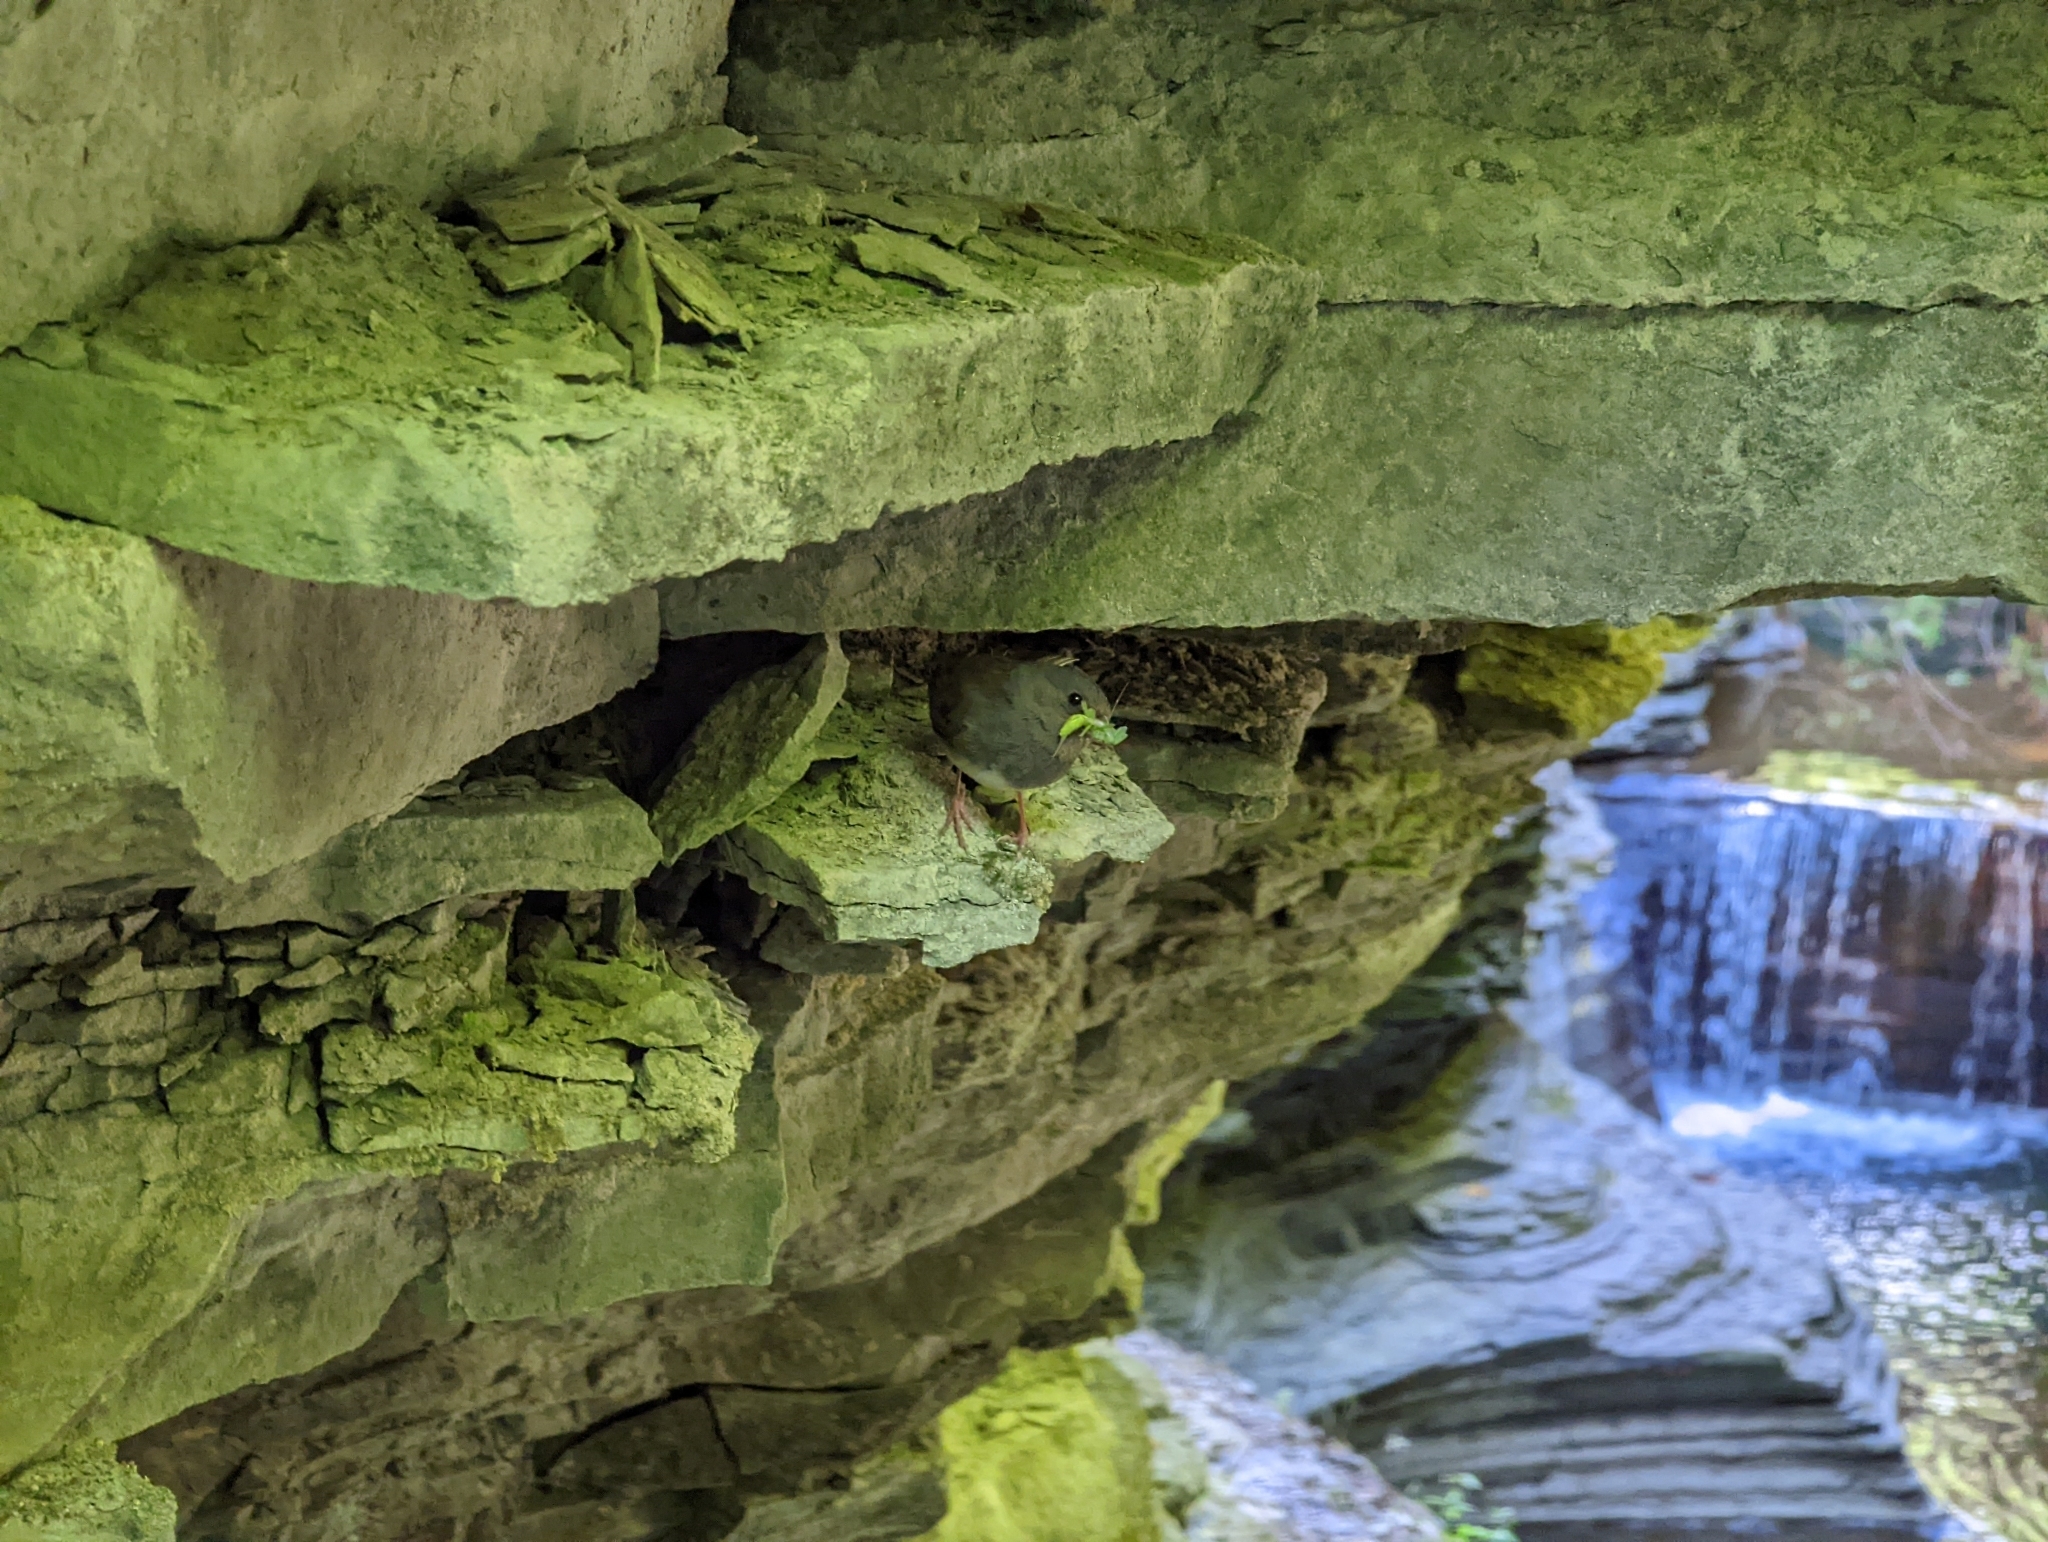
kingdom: Animalia
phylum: Chordata
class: Aves
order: Passeriformes
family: Passerellidae
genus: Junco
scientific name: Junco hyemalis
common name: Dark-eyed junco
